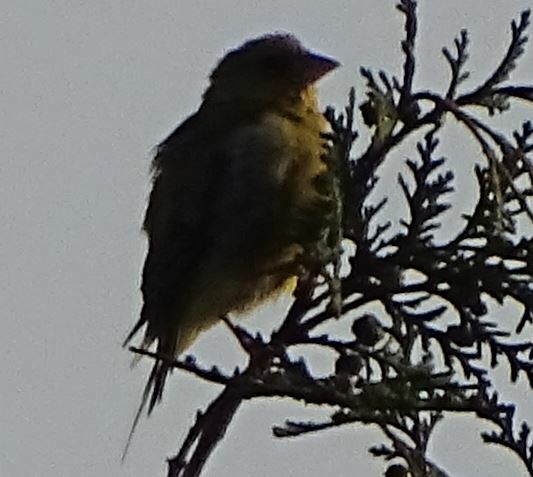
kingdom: Plantae
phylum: Tracheophyta
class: Liliopsida
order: Poales
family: Poaceae
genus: Chloris
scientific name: Chloris chloris
